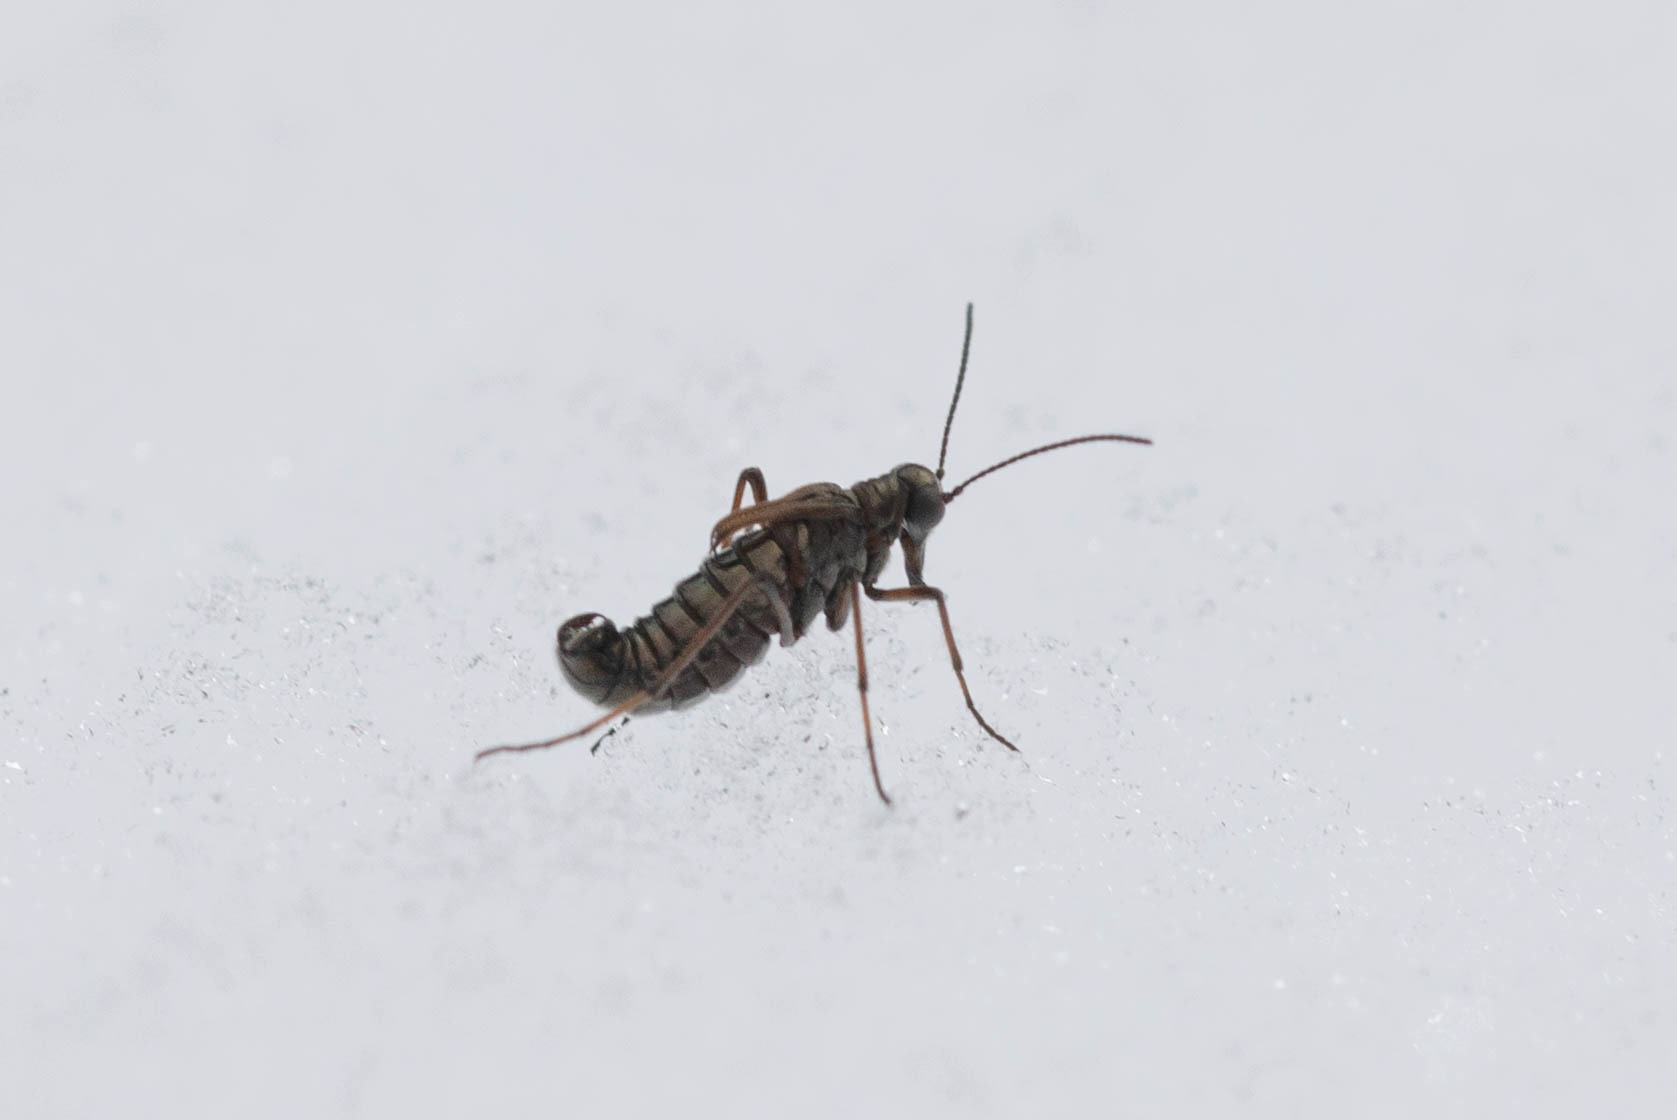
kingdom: Animalia
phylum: Arthropoda
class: Insecta
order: Mecoptera
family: Boreidae
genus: Boreus
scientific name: Boreus californicus
